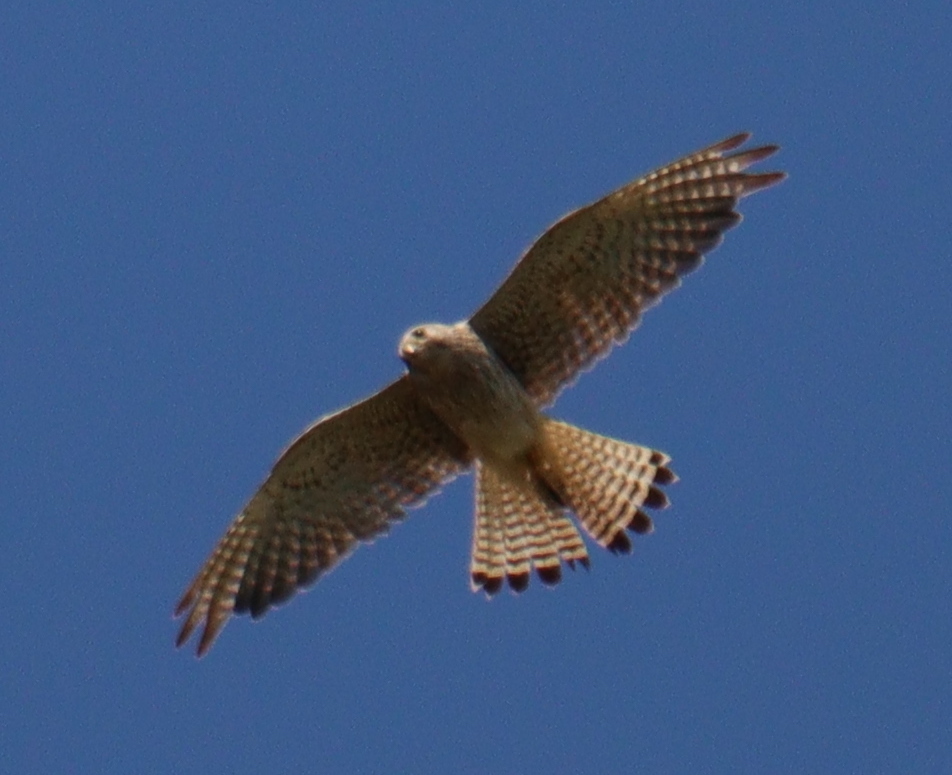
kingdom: Animalia
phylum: Chordata
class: Aves
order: Falconiformes
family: Falconidae
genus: Falco
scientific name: Falco tinnunculus
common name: Common kestrel
